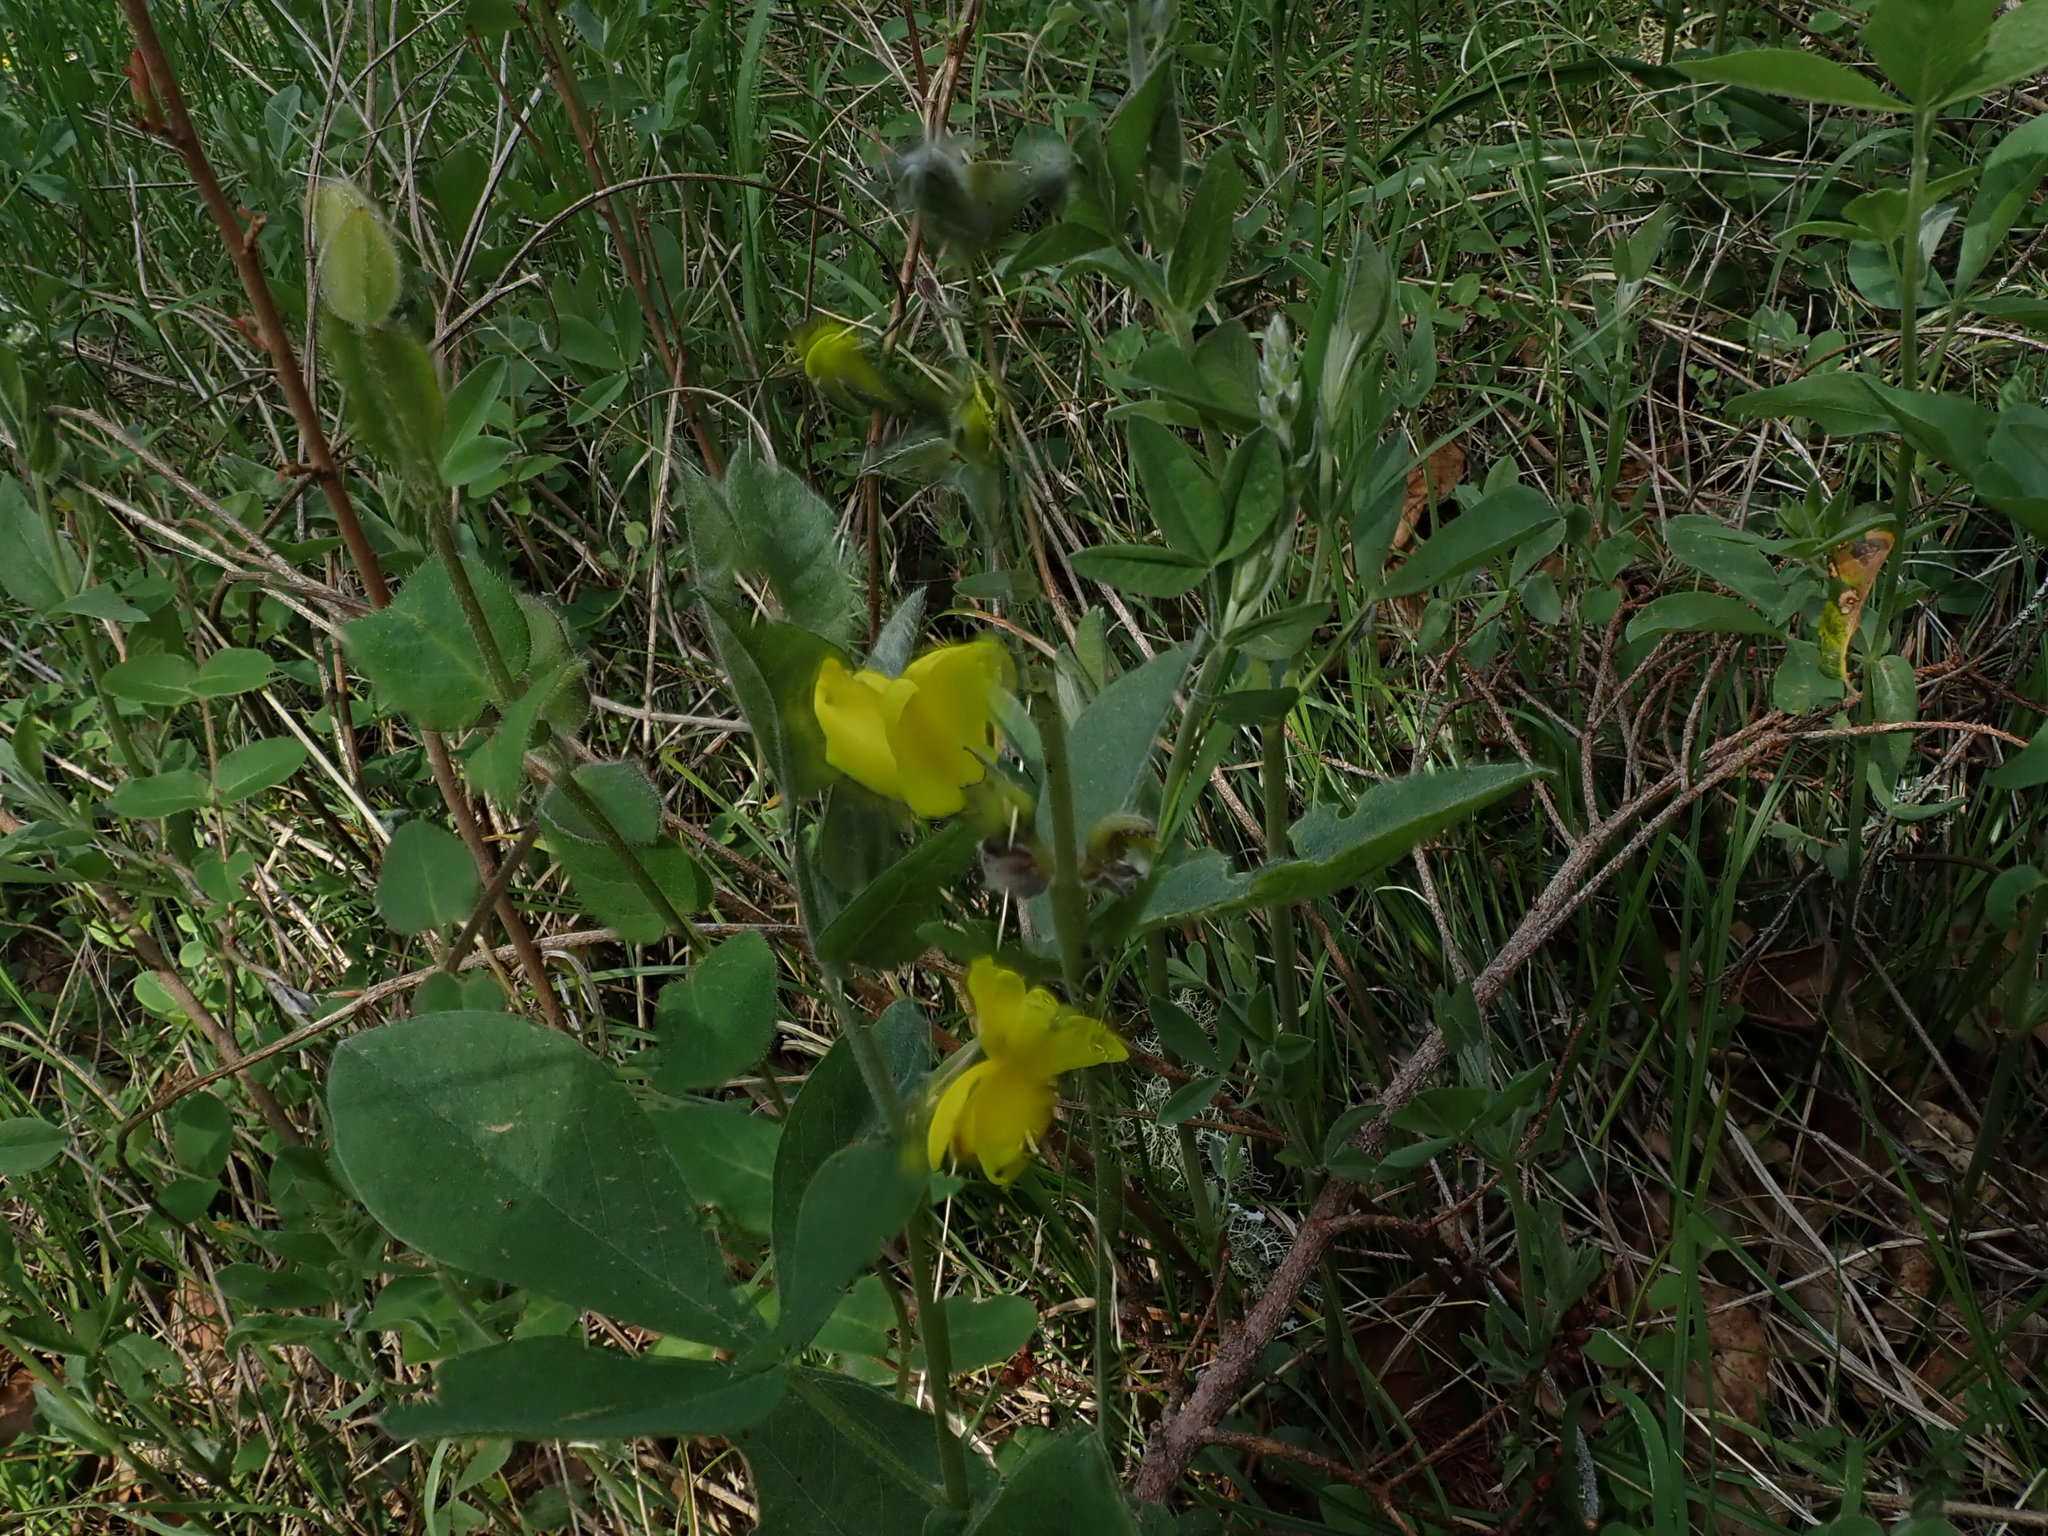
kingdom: Plantae
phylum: Tracheophyta
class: Magnoliopsida
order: Fabales
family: Fabaceae
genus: Thermopsis
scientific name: Thermopsis californica
